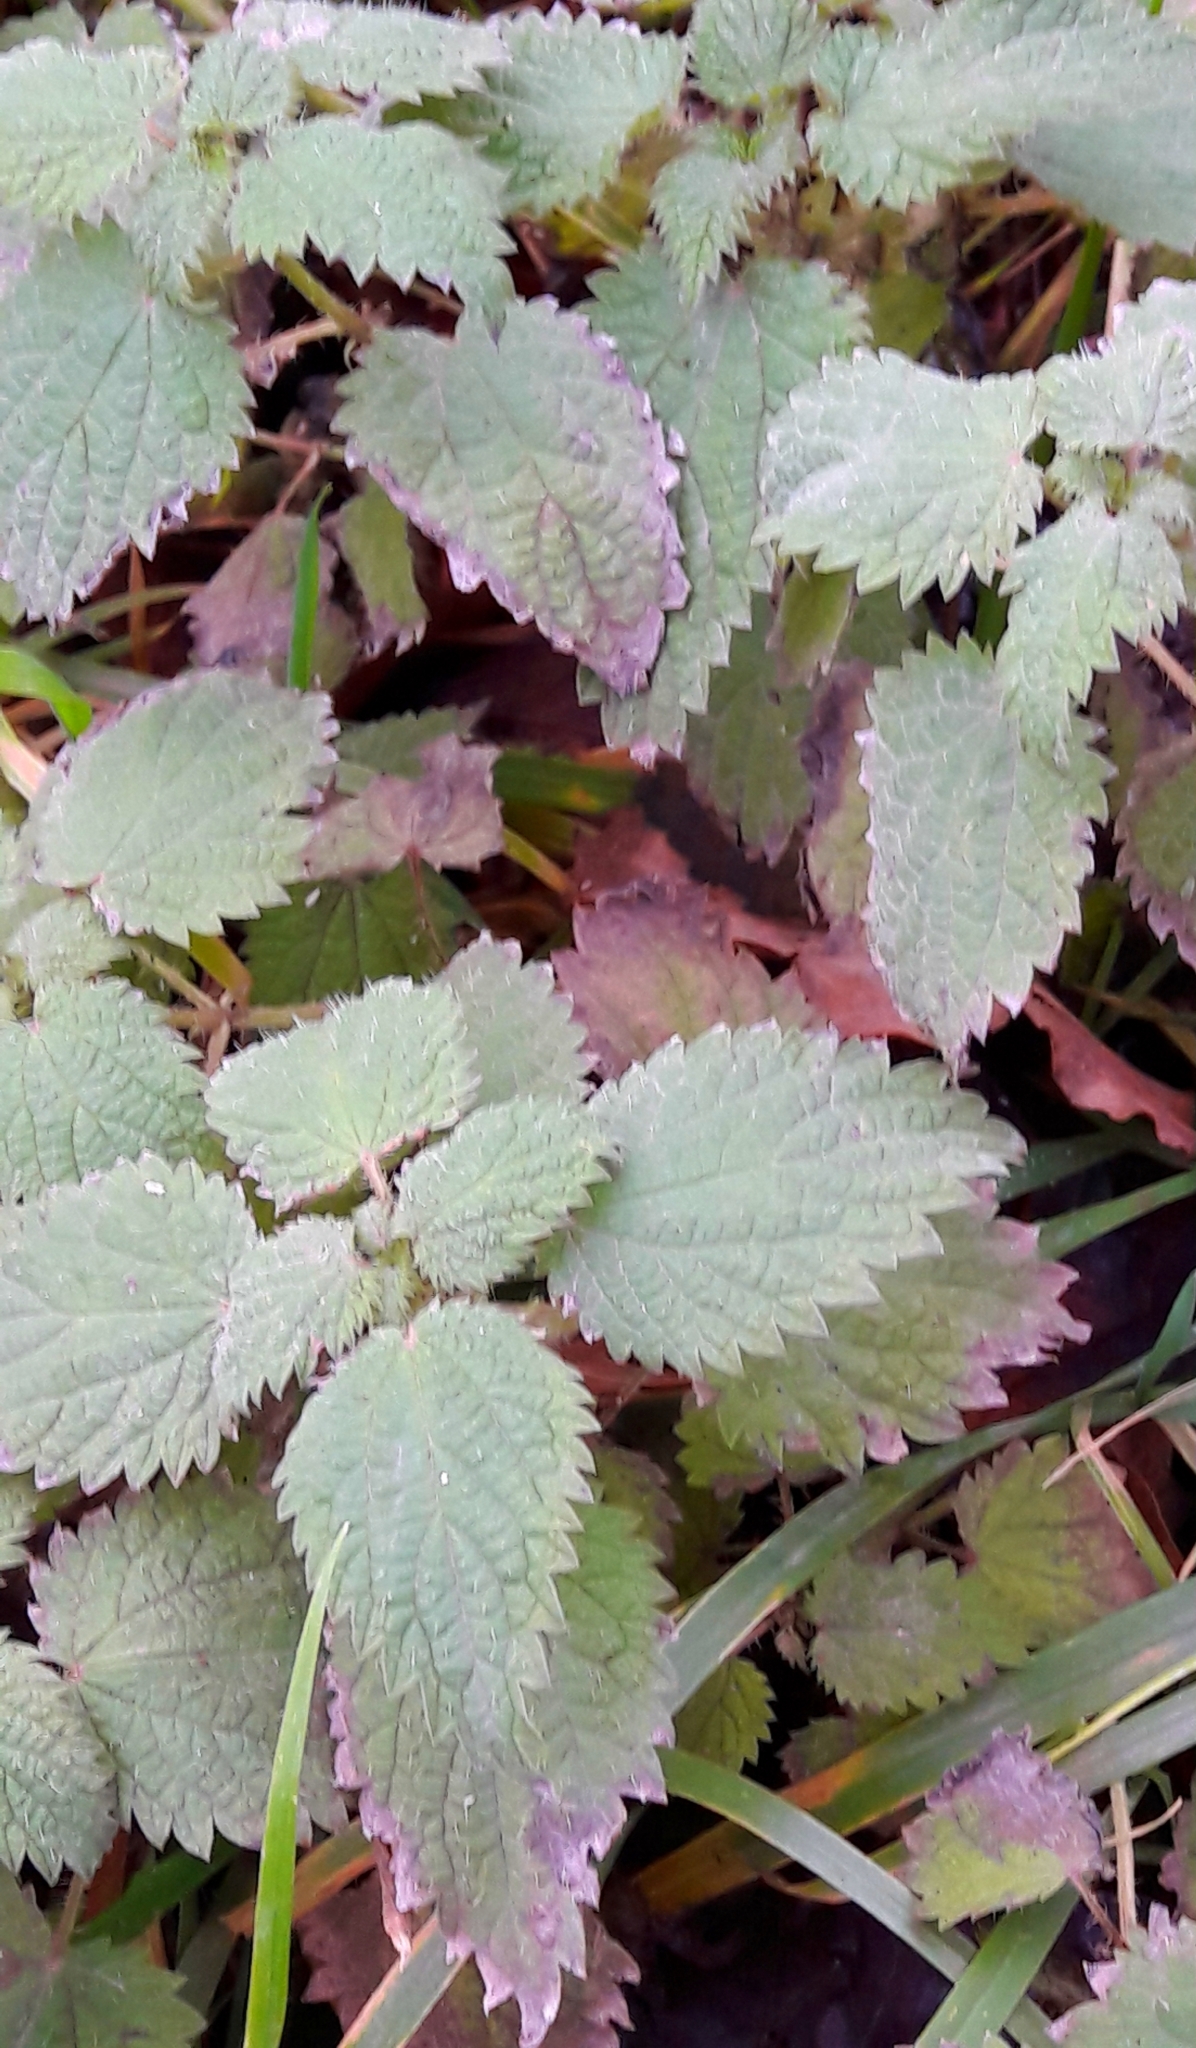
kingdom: Plantae
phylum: Tracheophyta
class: Magnoliopsida
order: Rosales
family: Urticaceae
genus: Urtica
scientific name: Urtica dioica
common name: Common nettle
